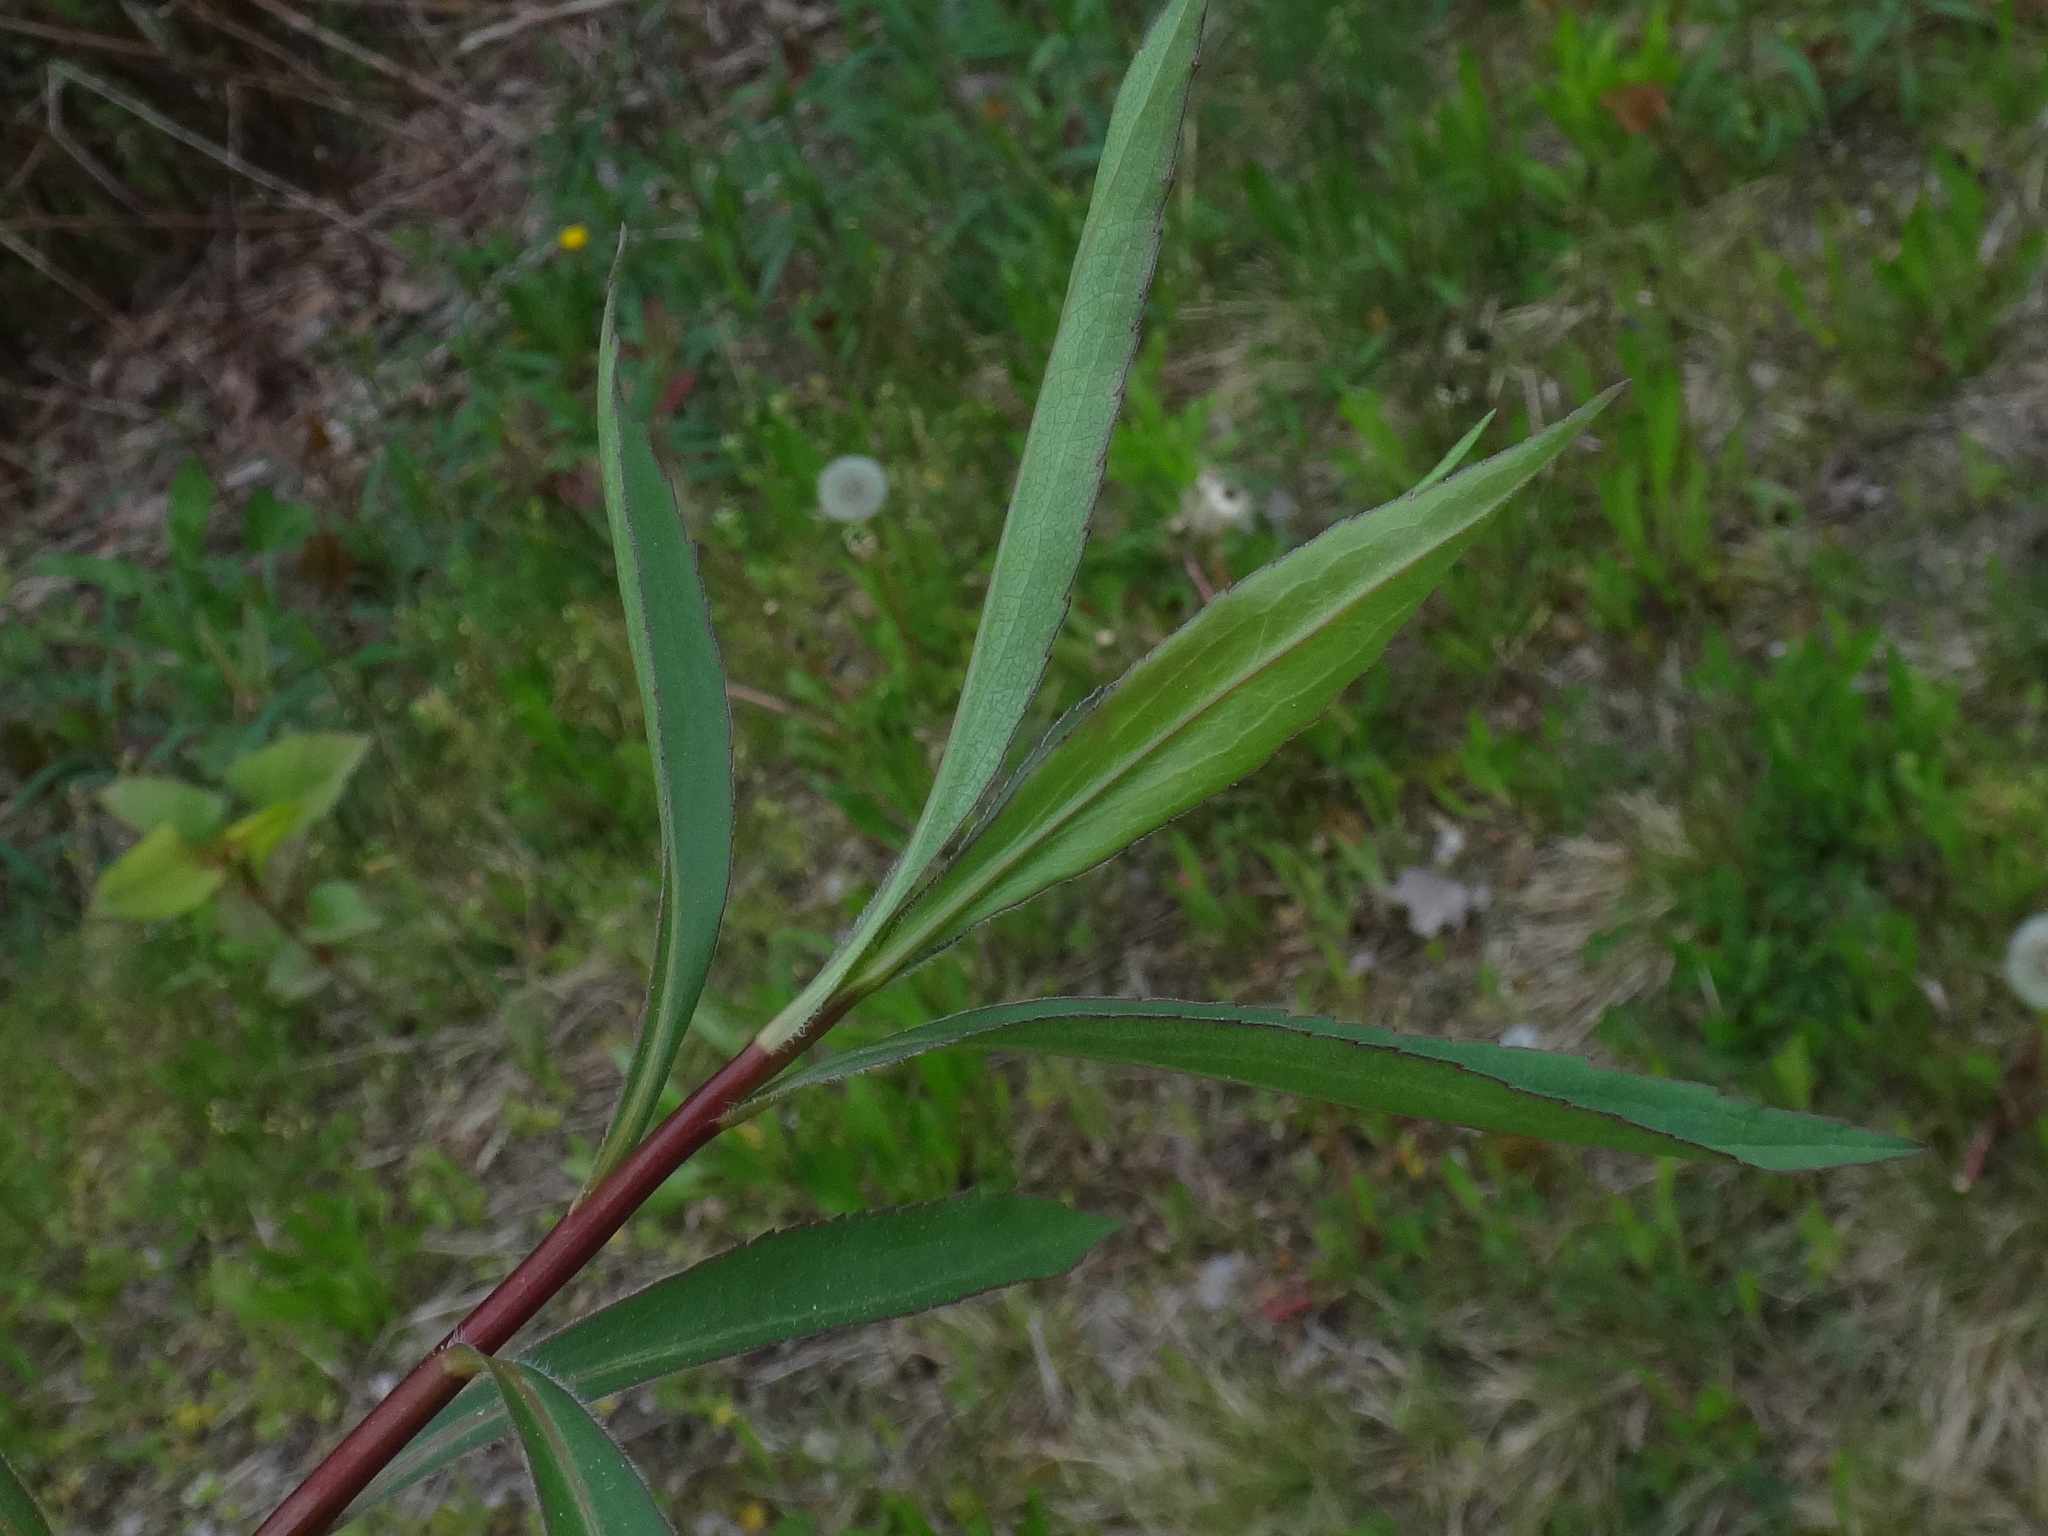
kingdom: Plantae
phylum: Tracheophyta
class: Magnoliopsida
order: Asterales
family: Asteraceae
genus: Solidago
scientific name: Solidago gigantea
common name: Giant goldenrod
